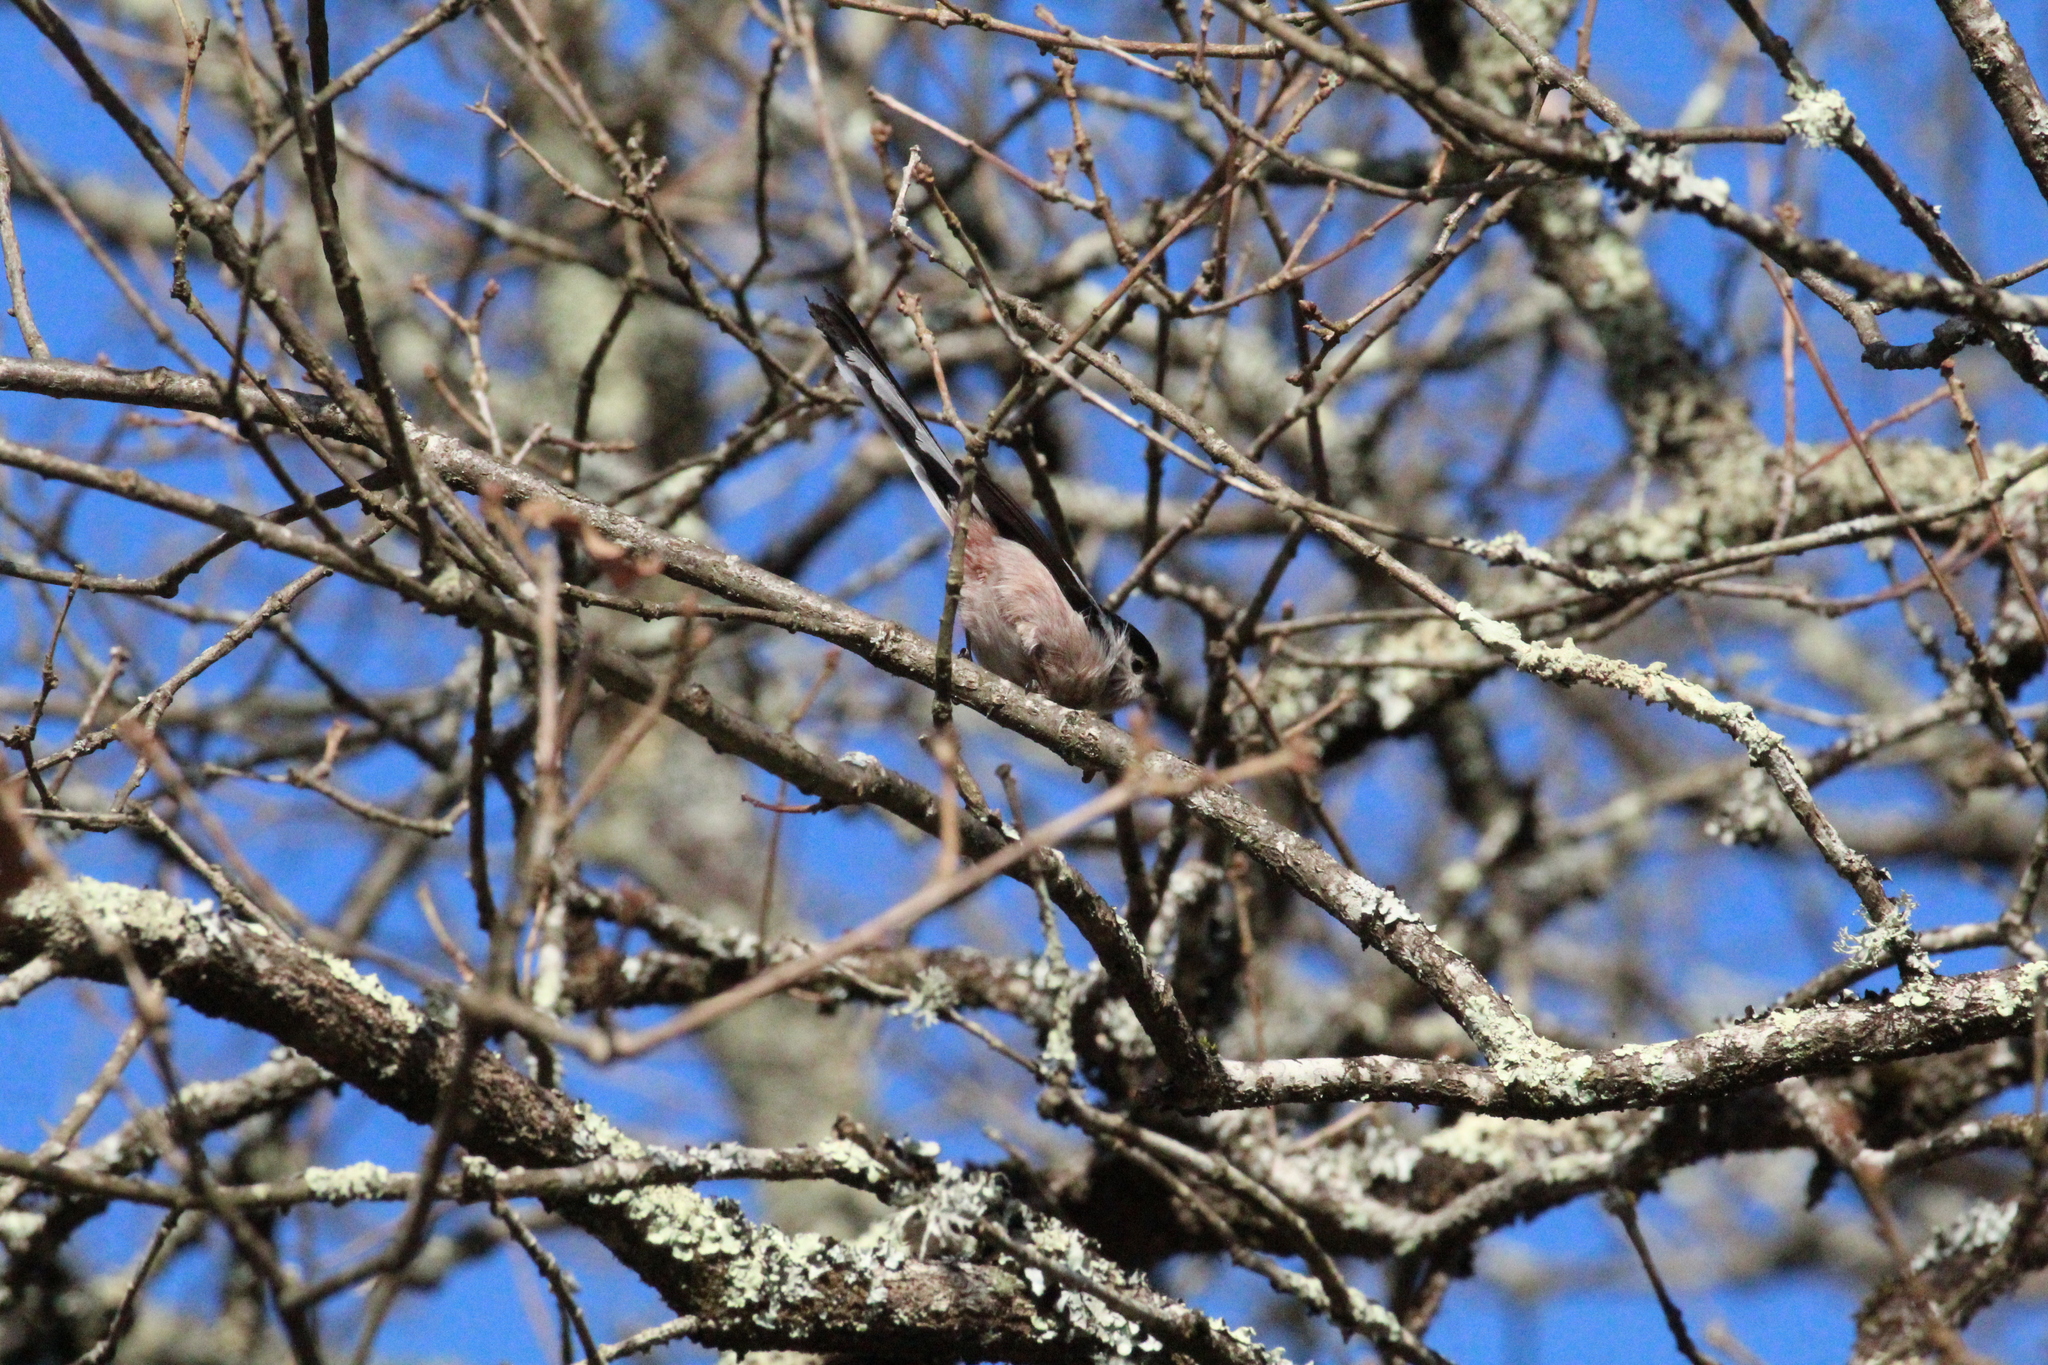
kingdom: Animalia
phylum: Chordata
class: Aves
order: Passeriformes
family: Aegithalidae
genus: Aegithalos
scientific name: Aegithalos caudatus
